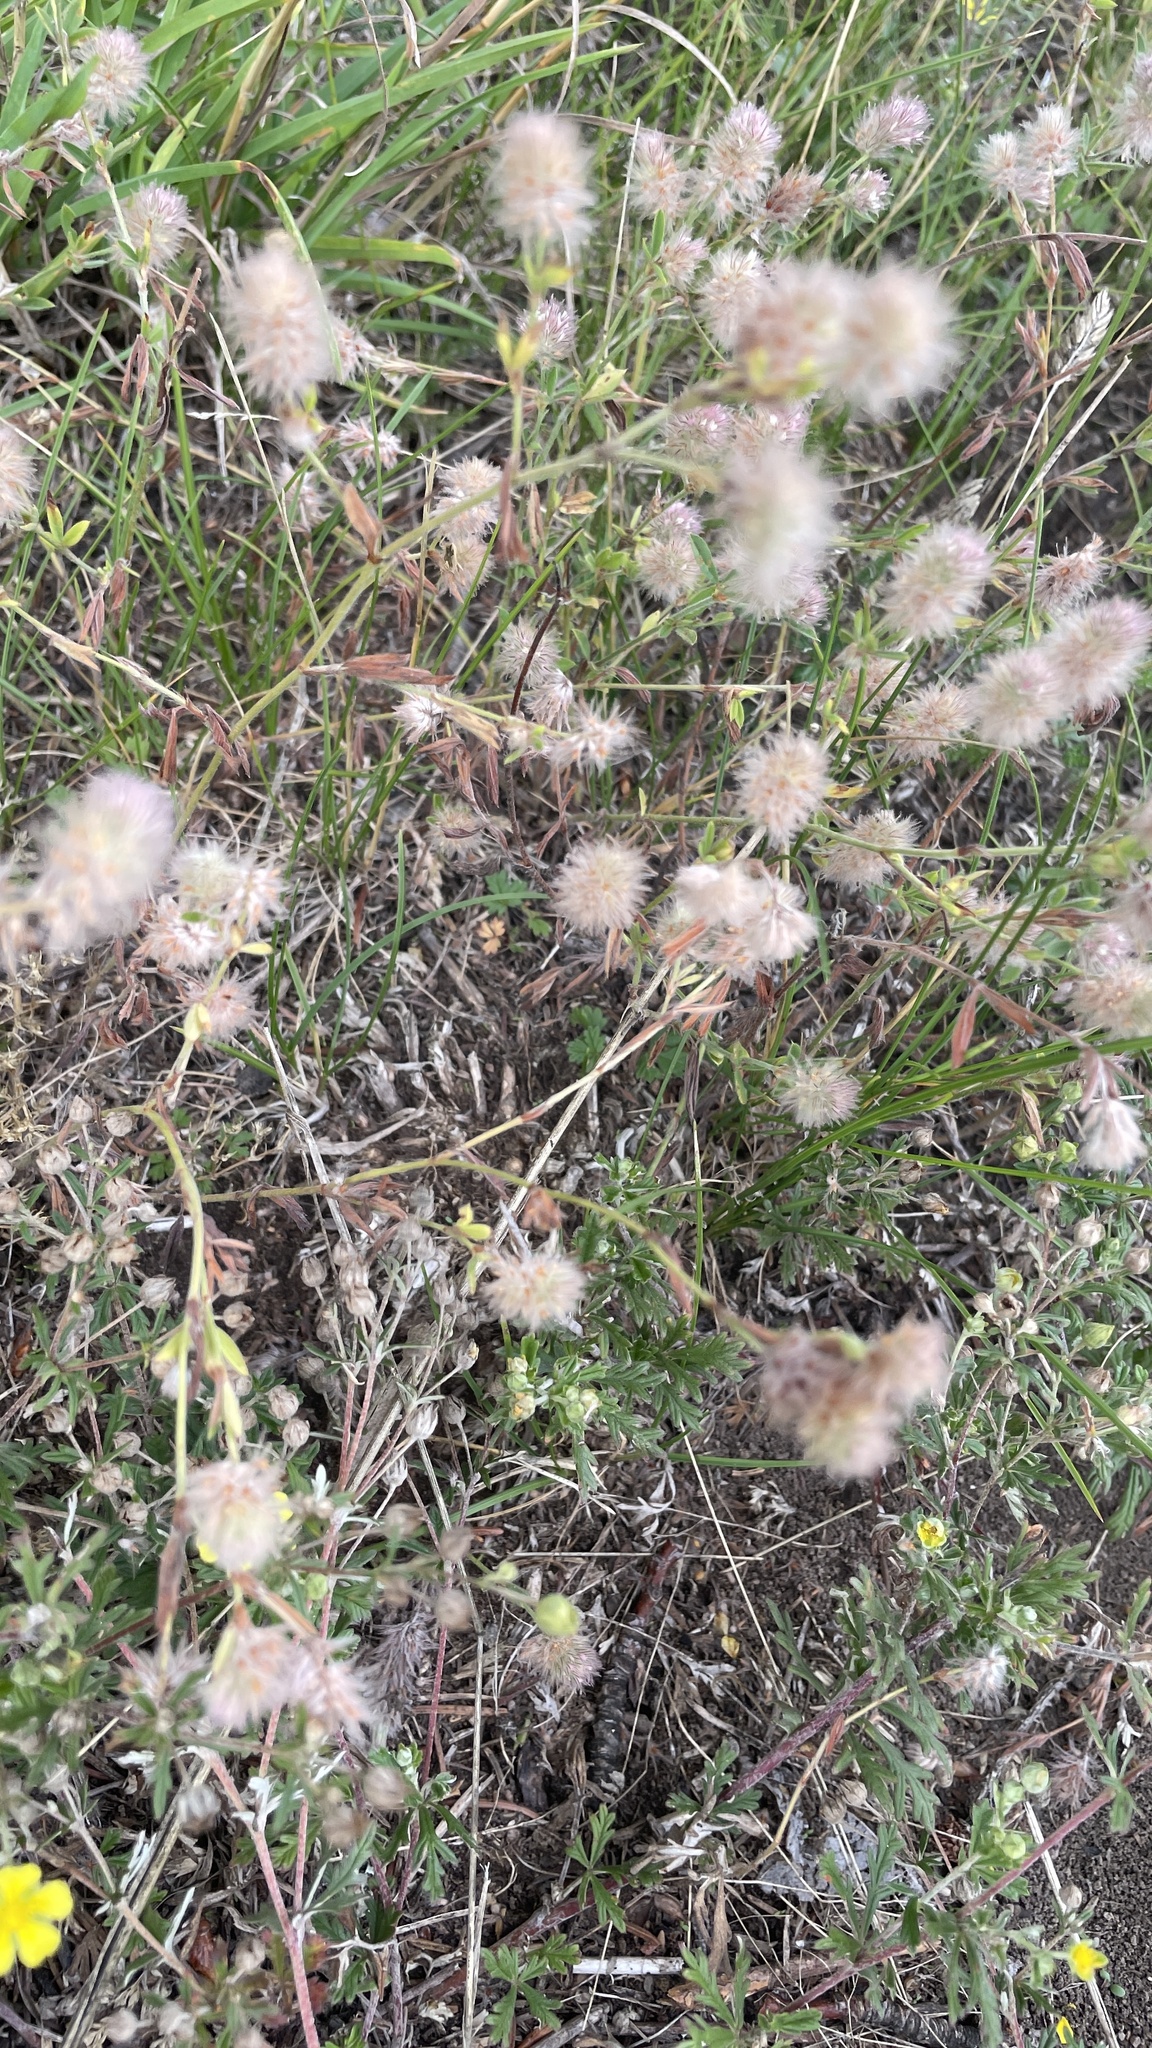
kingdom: Plantae
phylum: Tracheophyta
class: Magnoliopsida
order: Fabales
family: Fabaceae
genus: Trifolium
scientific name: Trifolium arvense
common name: Hare's-foot clover
